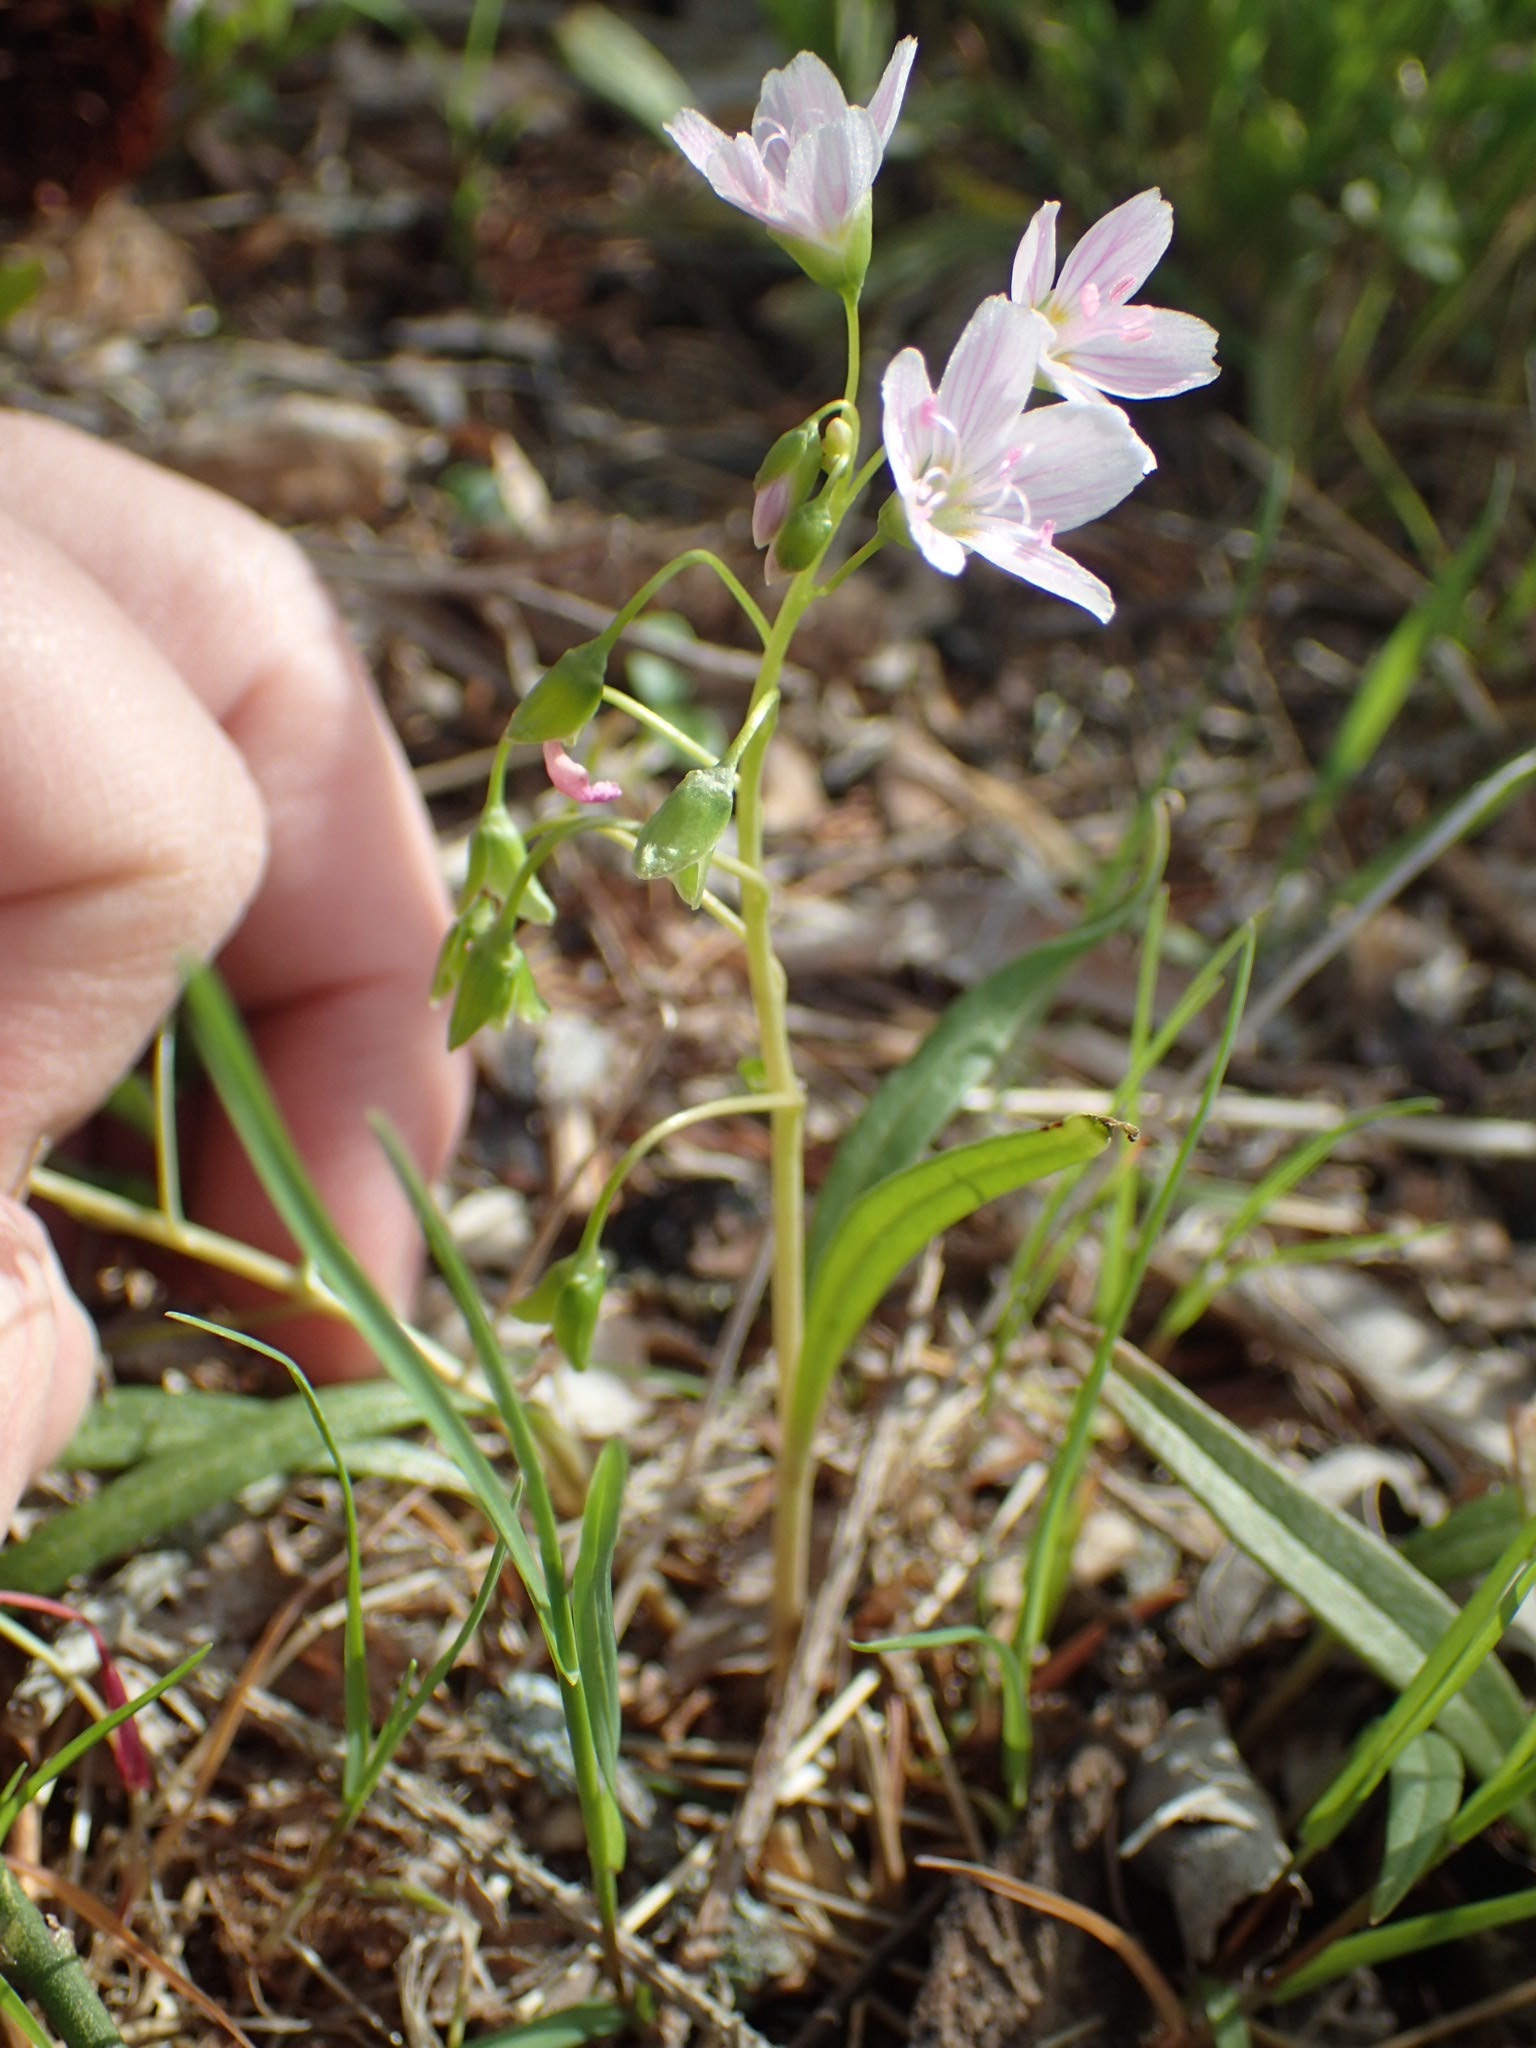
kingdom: Plantae
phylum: Tracheophyta
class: Magnoliopsida
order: Caryophyllales
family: Montiaceae
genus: Claytonia
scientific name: Claytonia virginica
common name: Virginia springbeauty
